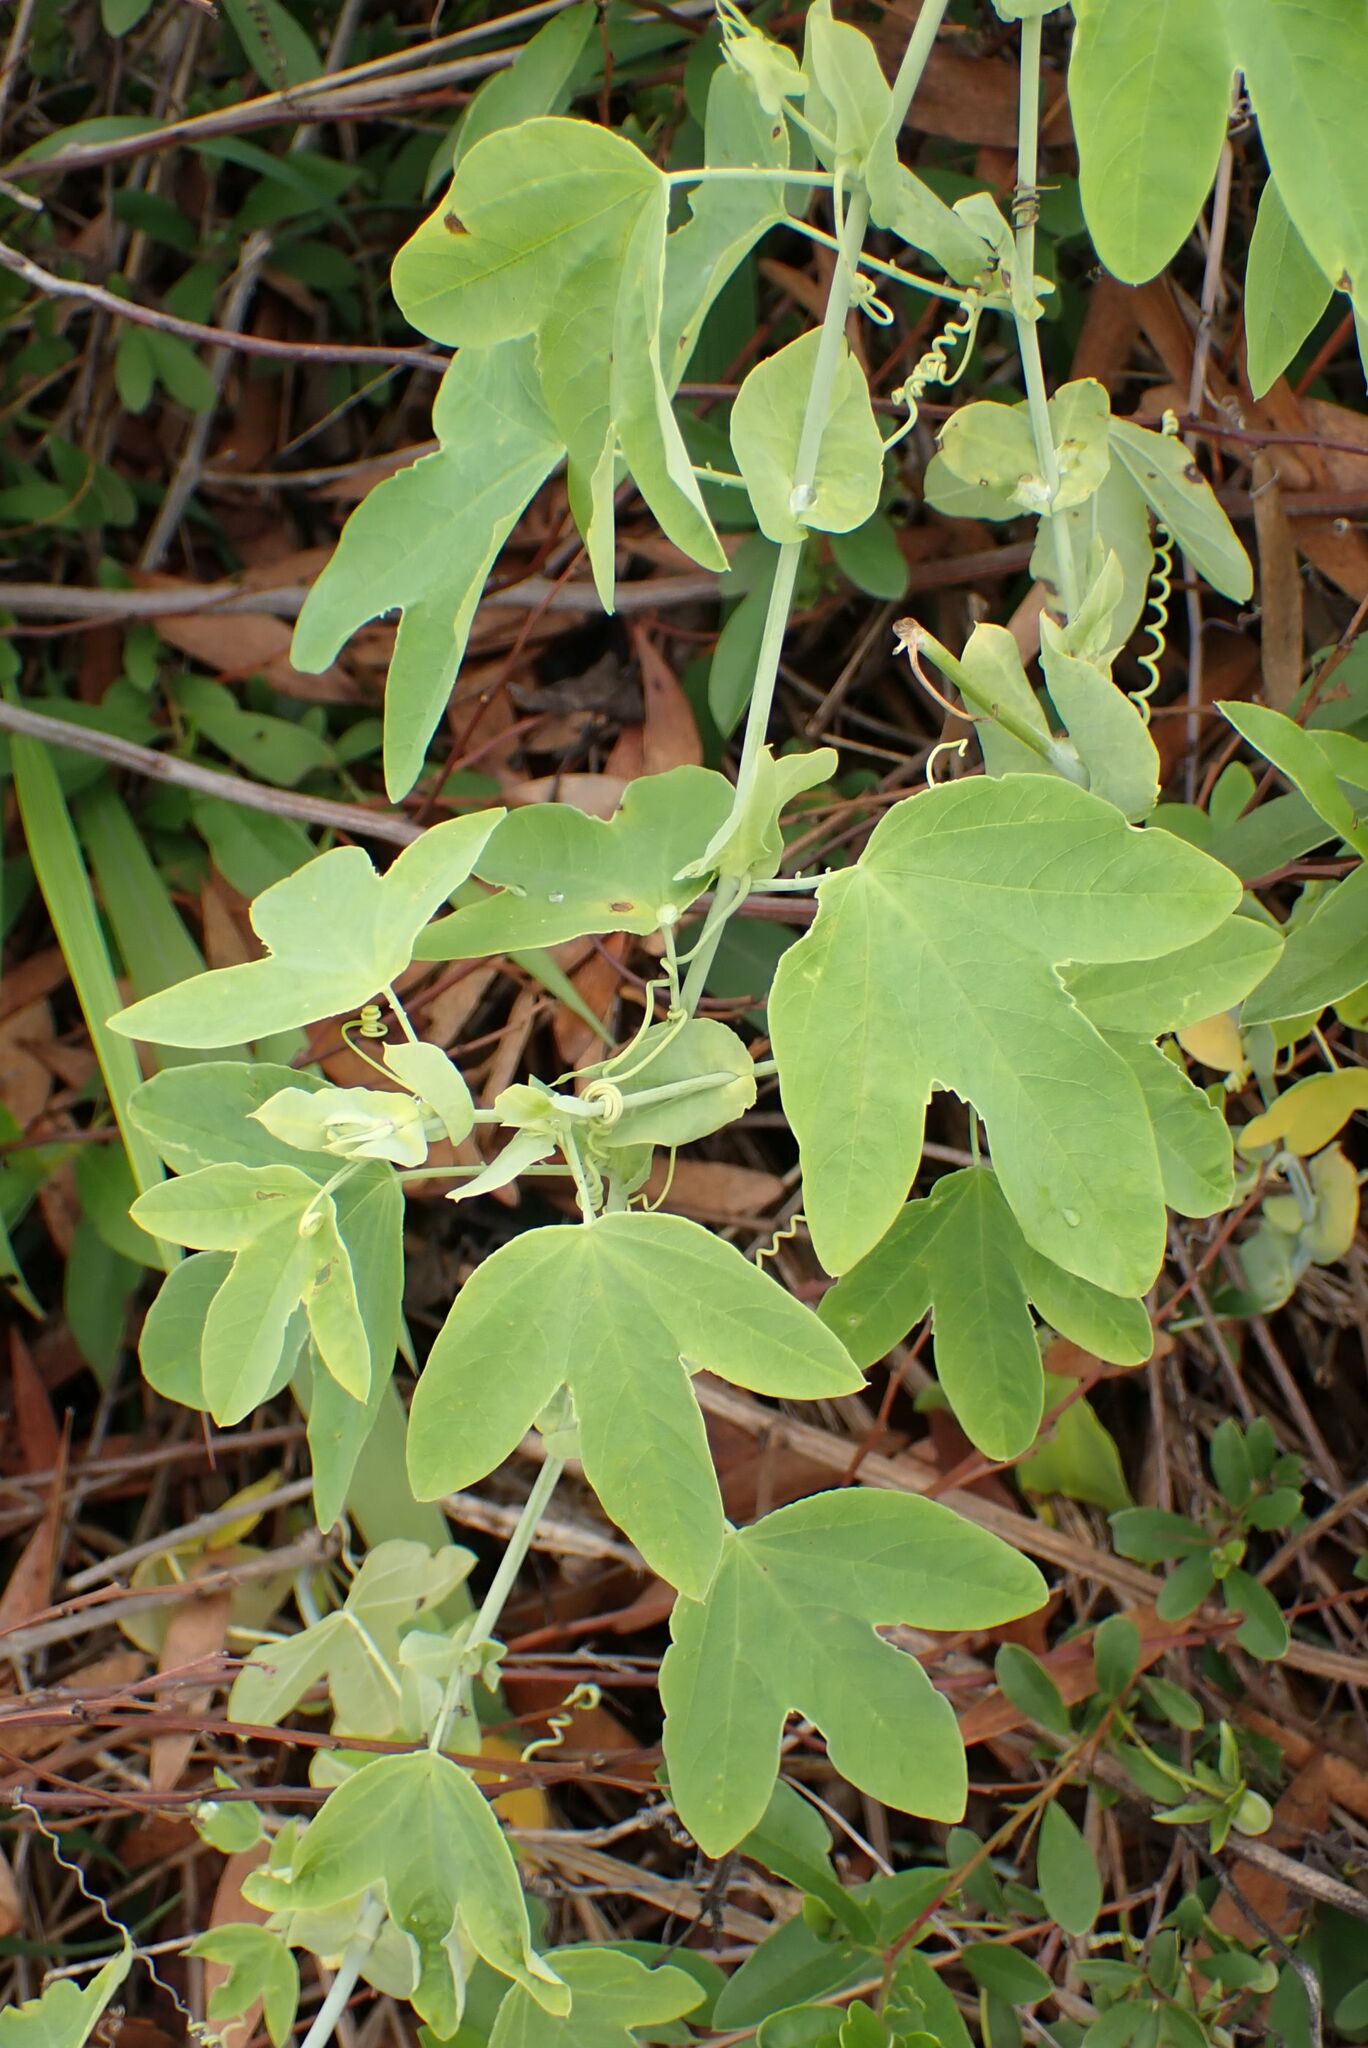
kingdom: Plantae
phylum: Tracheophyta
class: Magnoliopsida
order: Malpighiales
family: Passifloraceae
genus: Passiflora
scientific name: Passiflora subpeltata
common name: White passionflower
